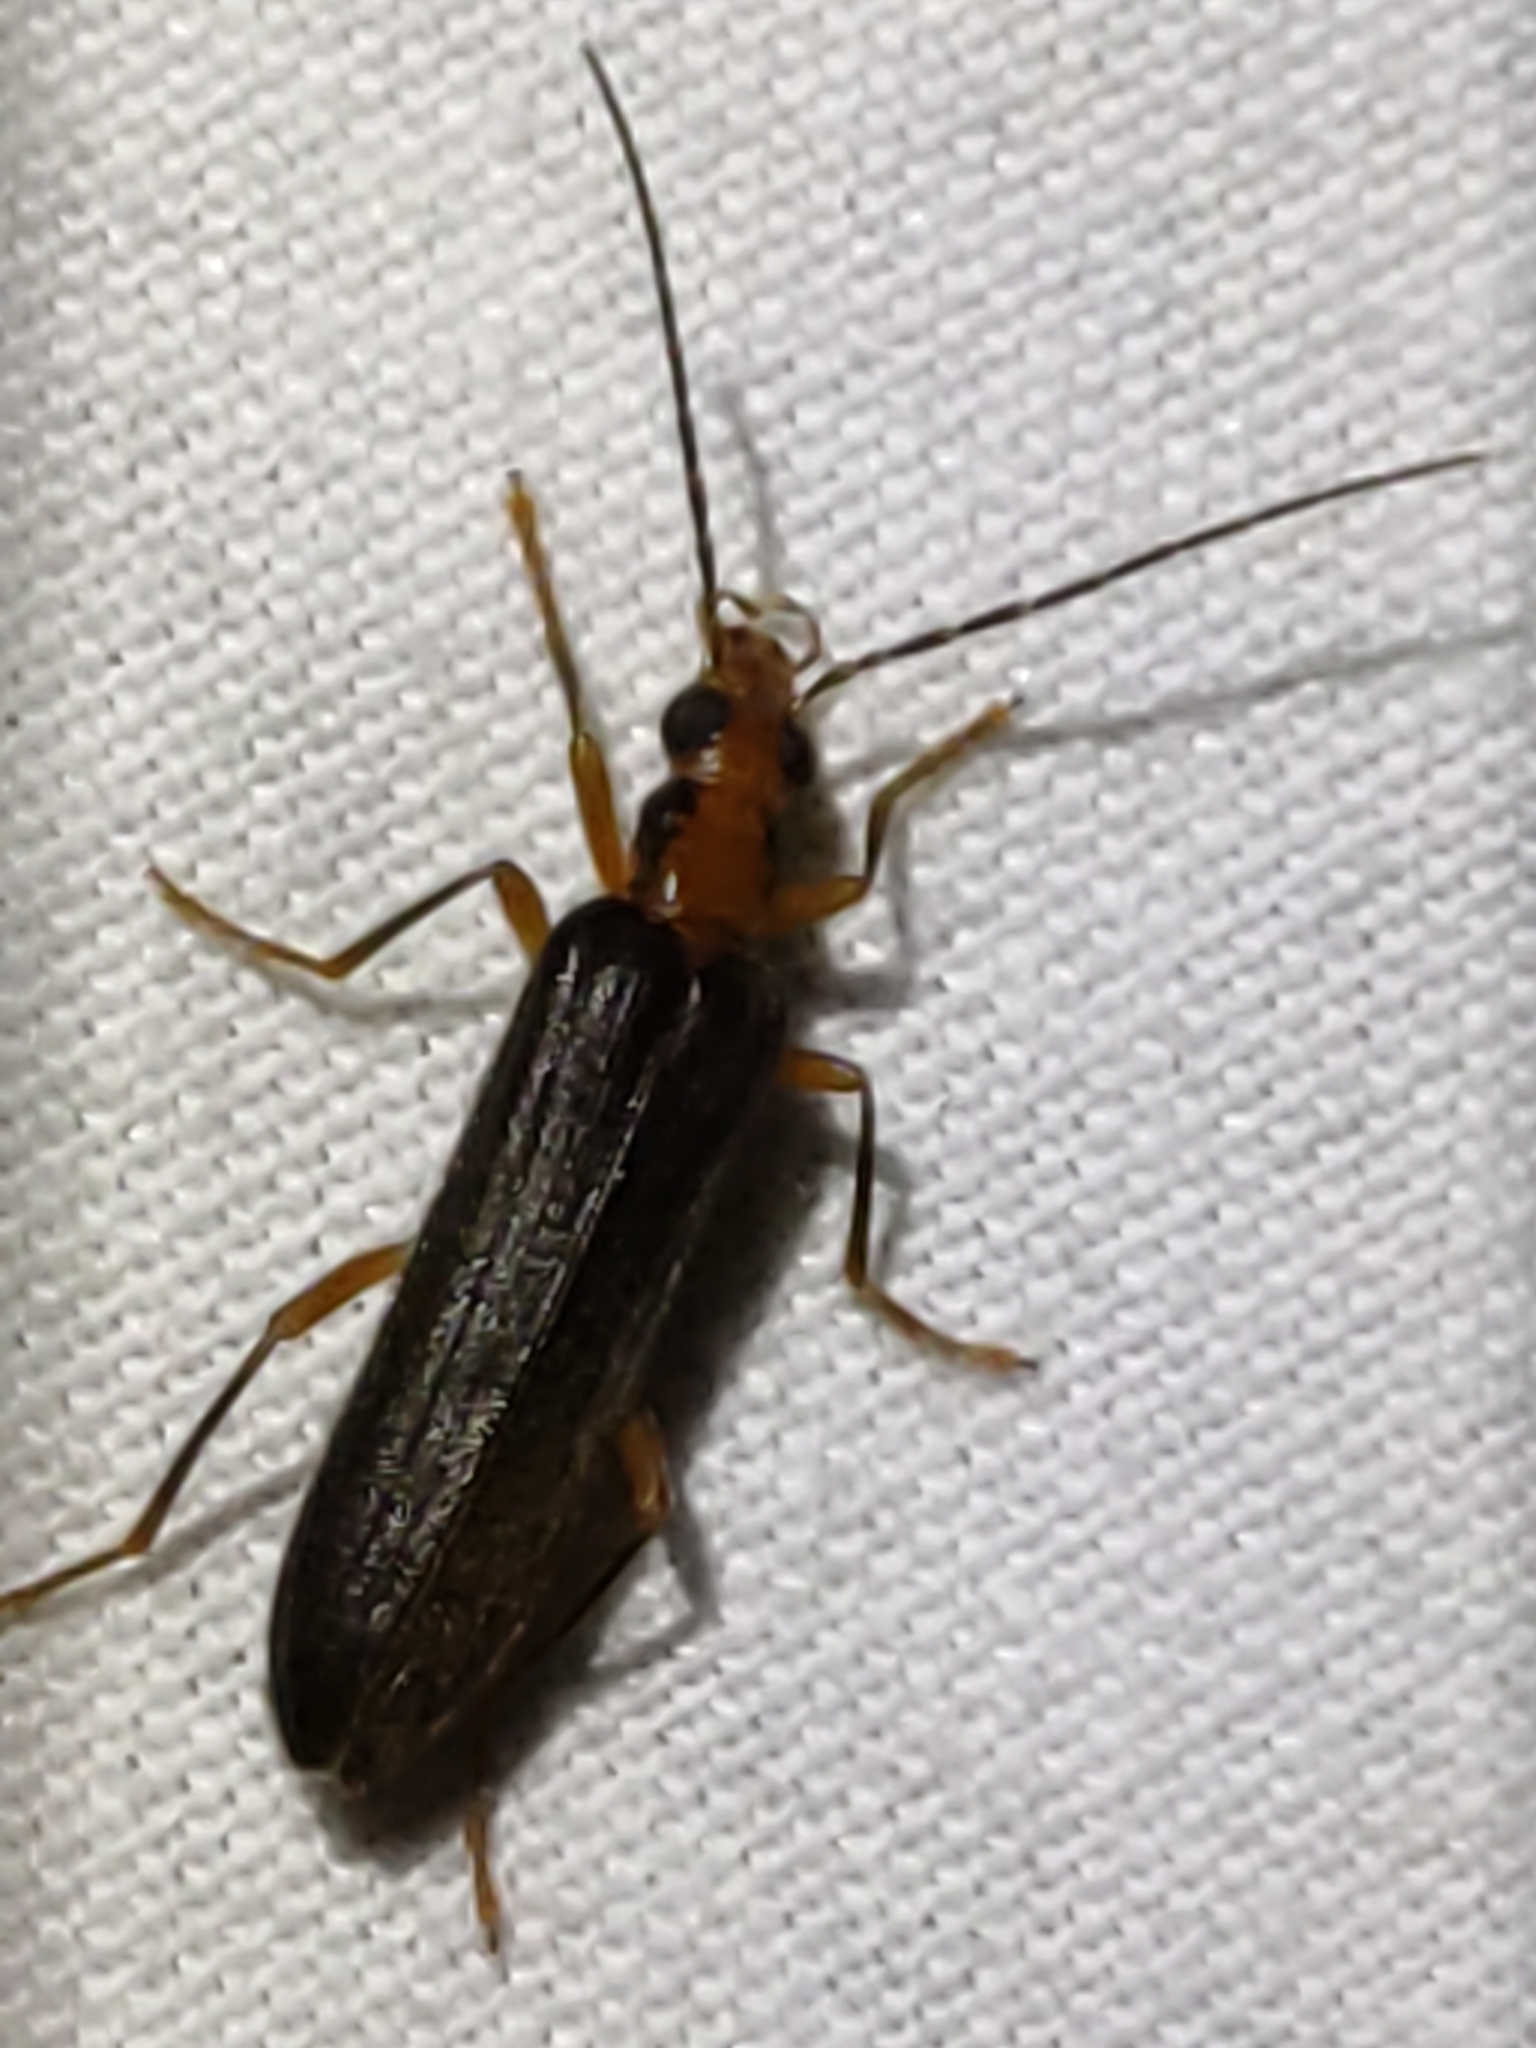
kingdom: Animalia
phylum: Arthropoda
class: Insecta
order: Coleoptera
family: Oedemeridae
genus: Nacerdes
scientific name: Nacerdes carniolica
